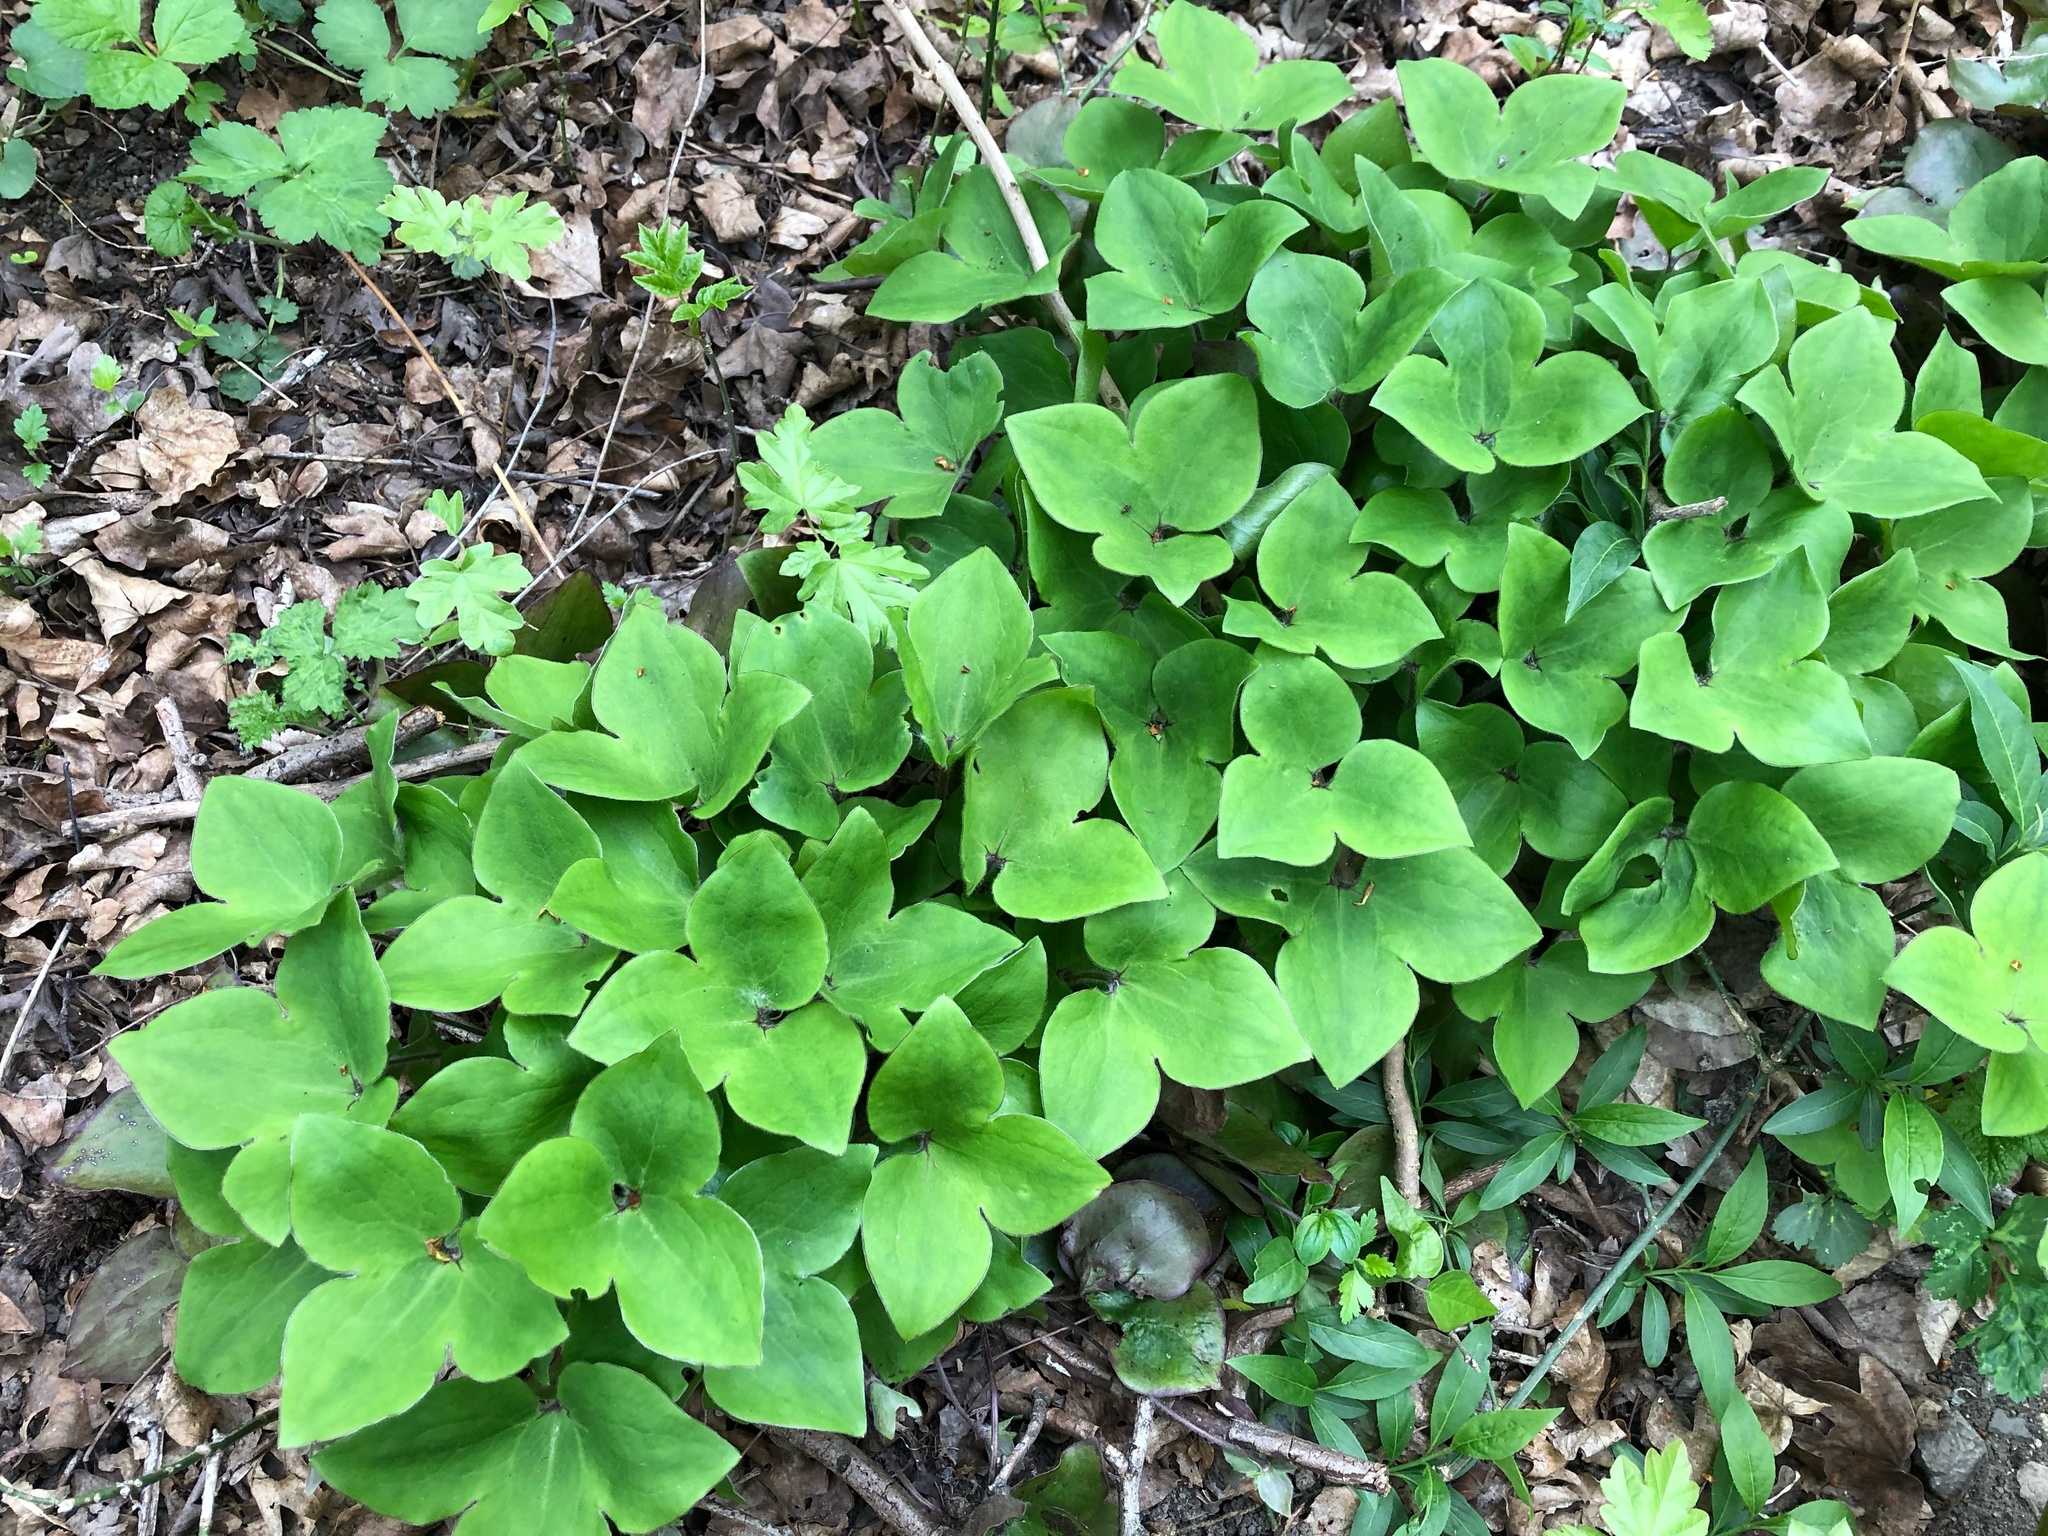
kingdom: Plantae
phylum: Tracheophyta
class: Magnoliopsida
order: Ranunculales
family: Ranunculaceae
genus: Hepatica
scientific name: Hepatica nobilis
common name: Liverleaf
